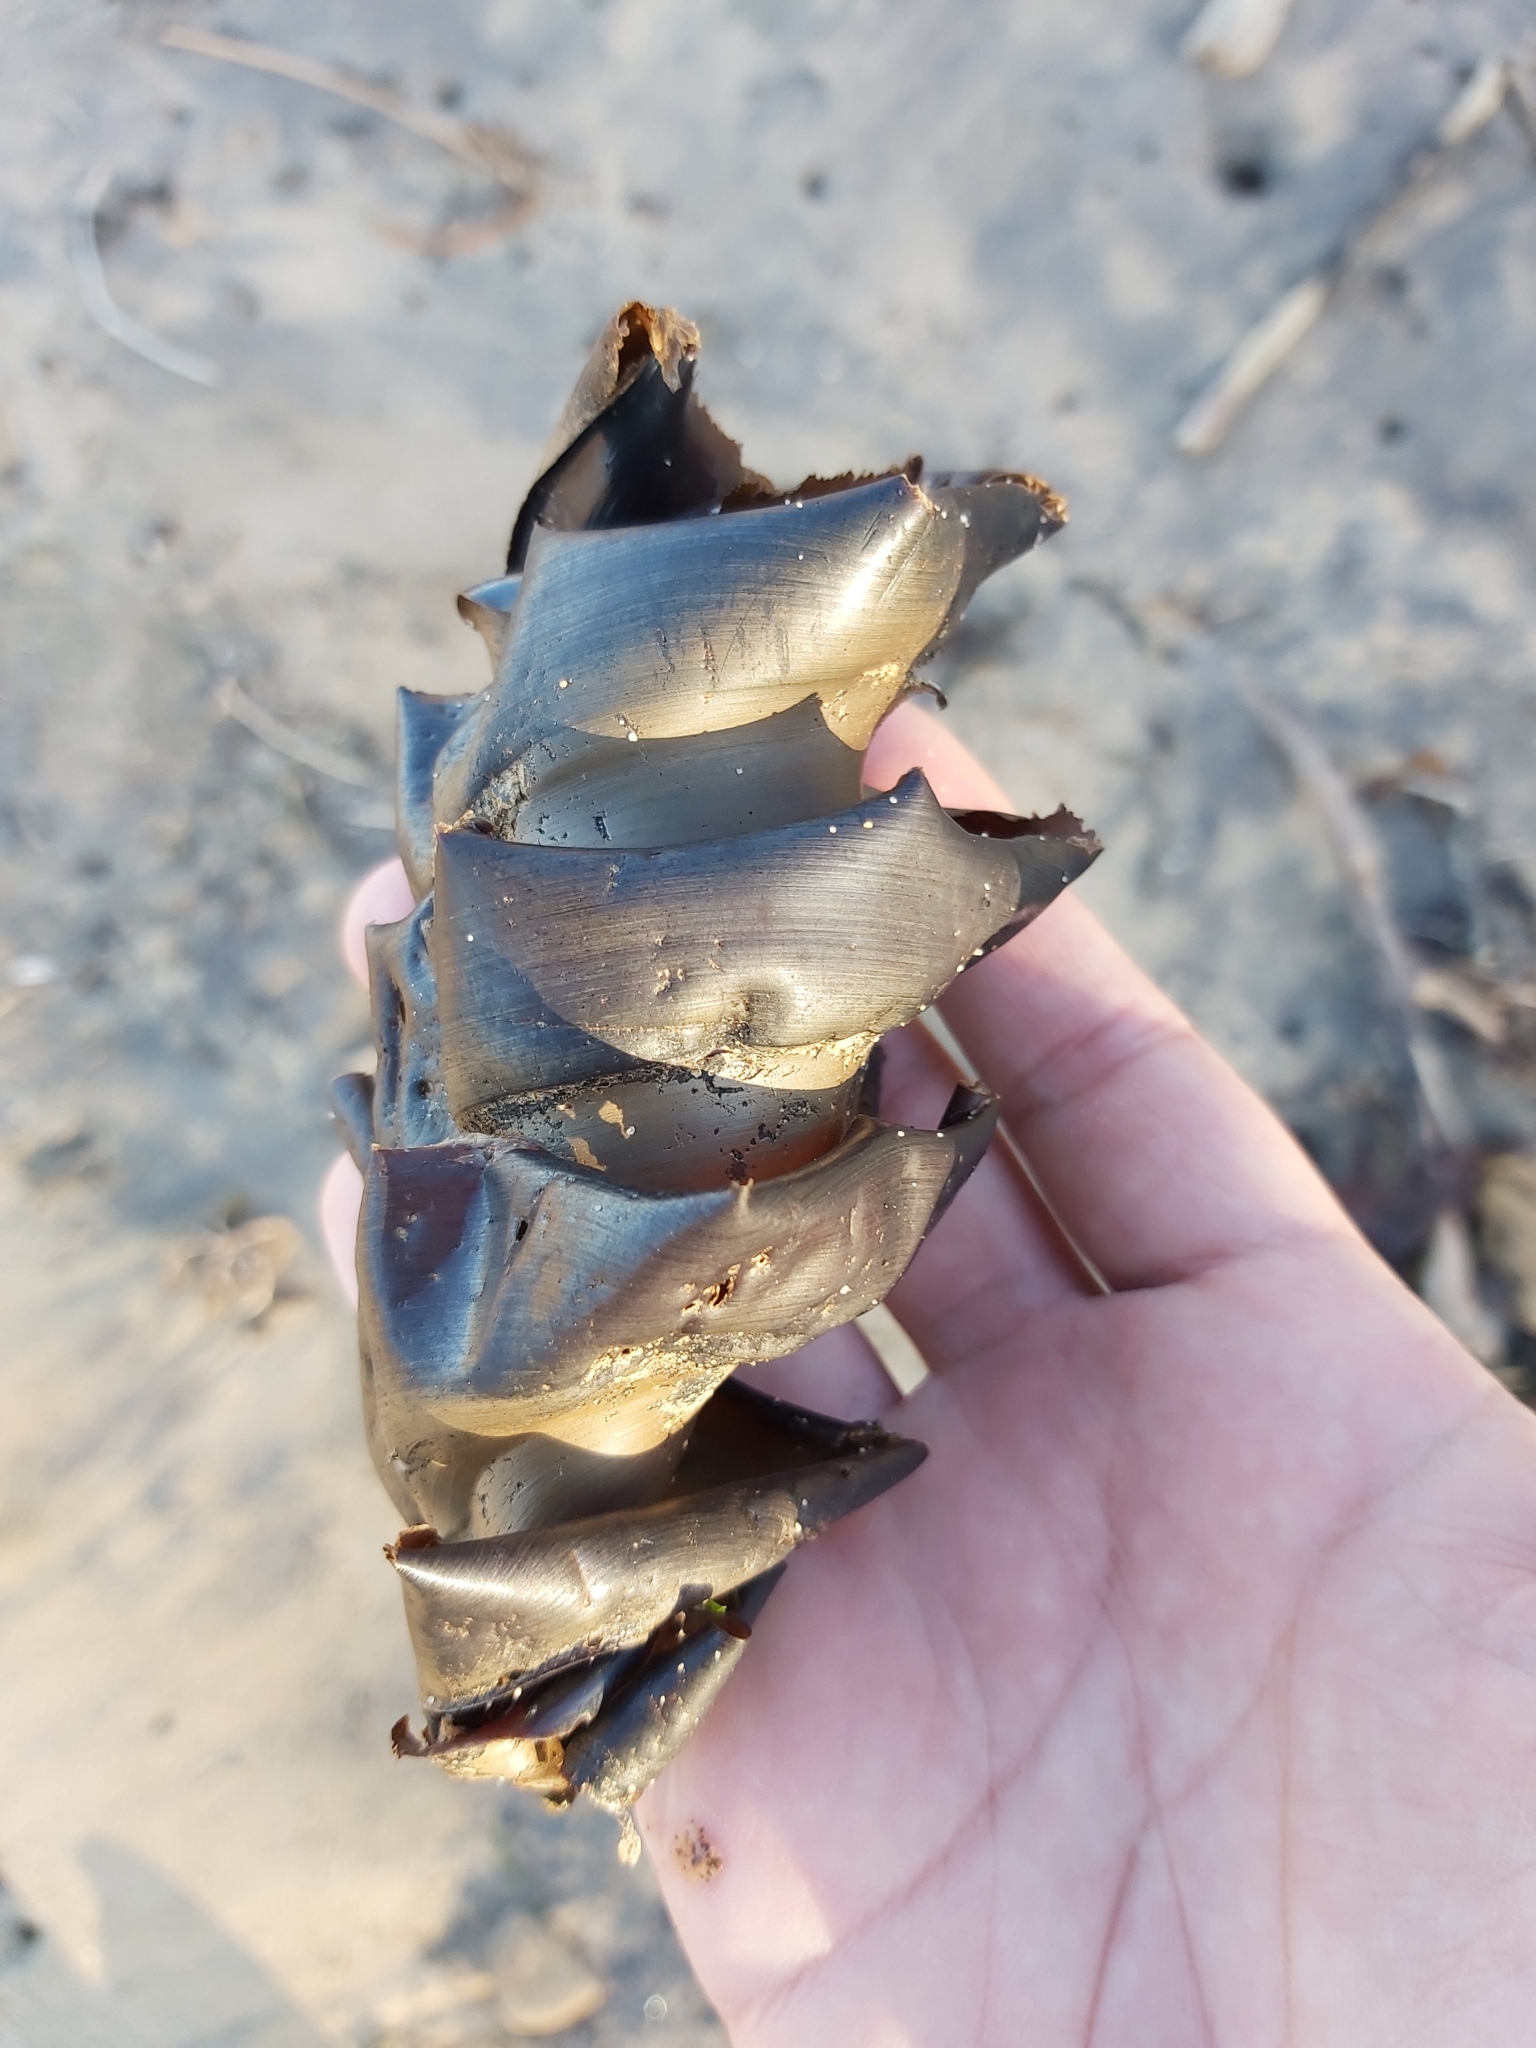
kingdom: Animalia
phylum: Chordata
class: Elasmobranchii
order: Heterodontiformes
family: Heterodontidae
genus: Heterodontus
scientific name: Heterodontus portusjacksoni
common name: Port jackson shark
